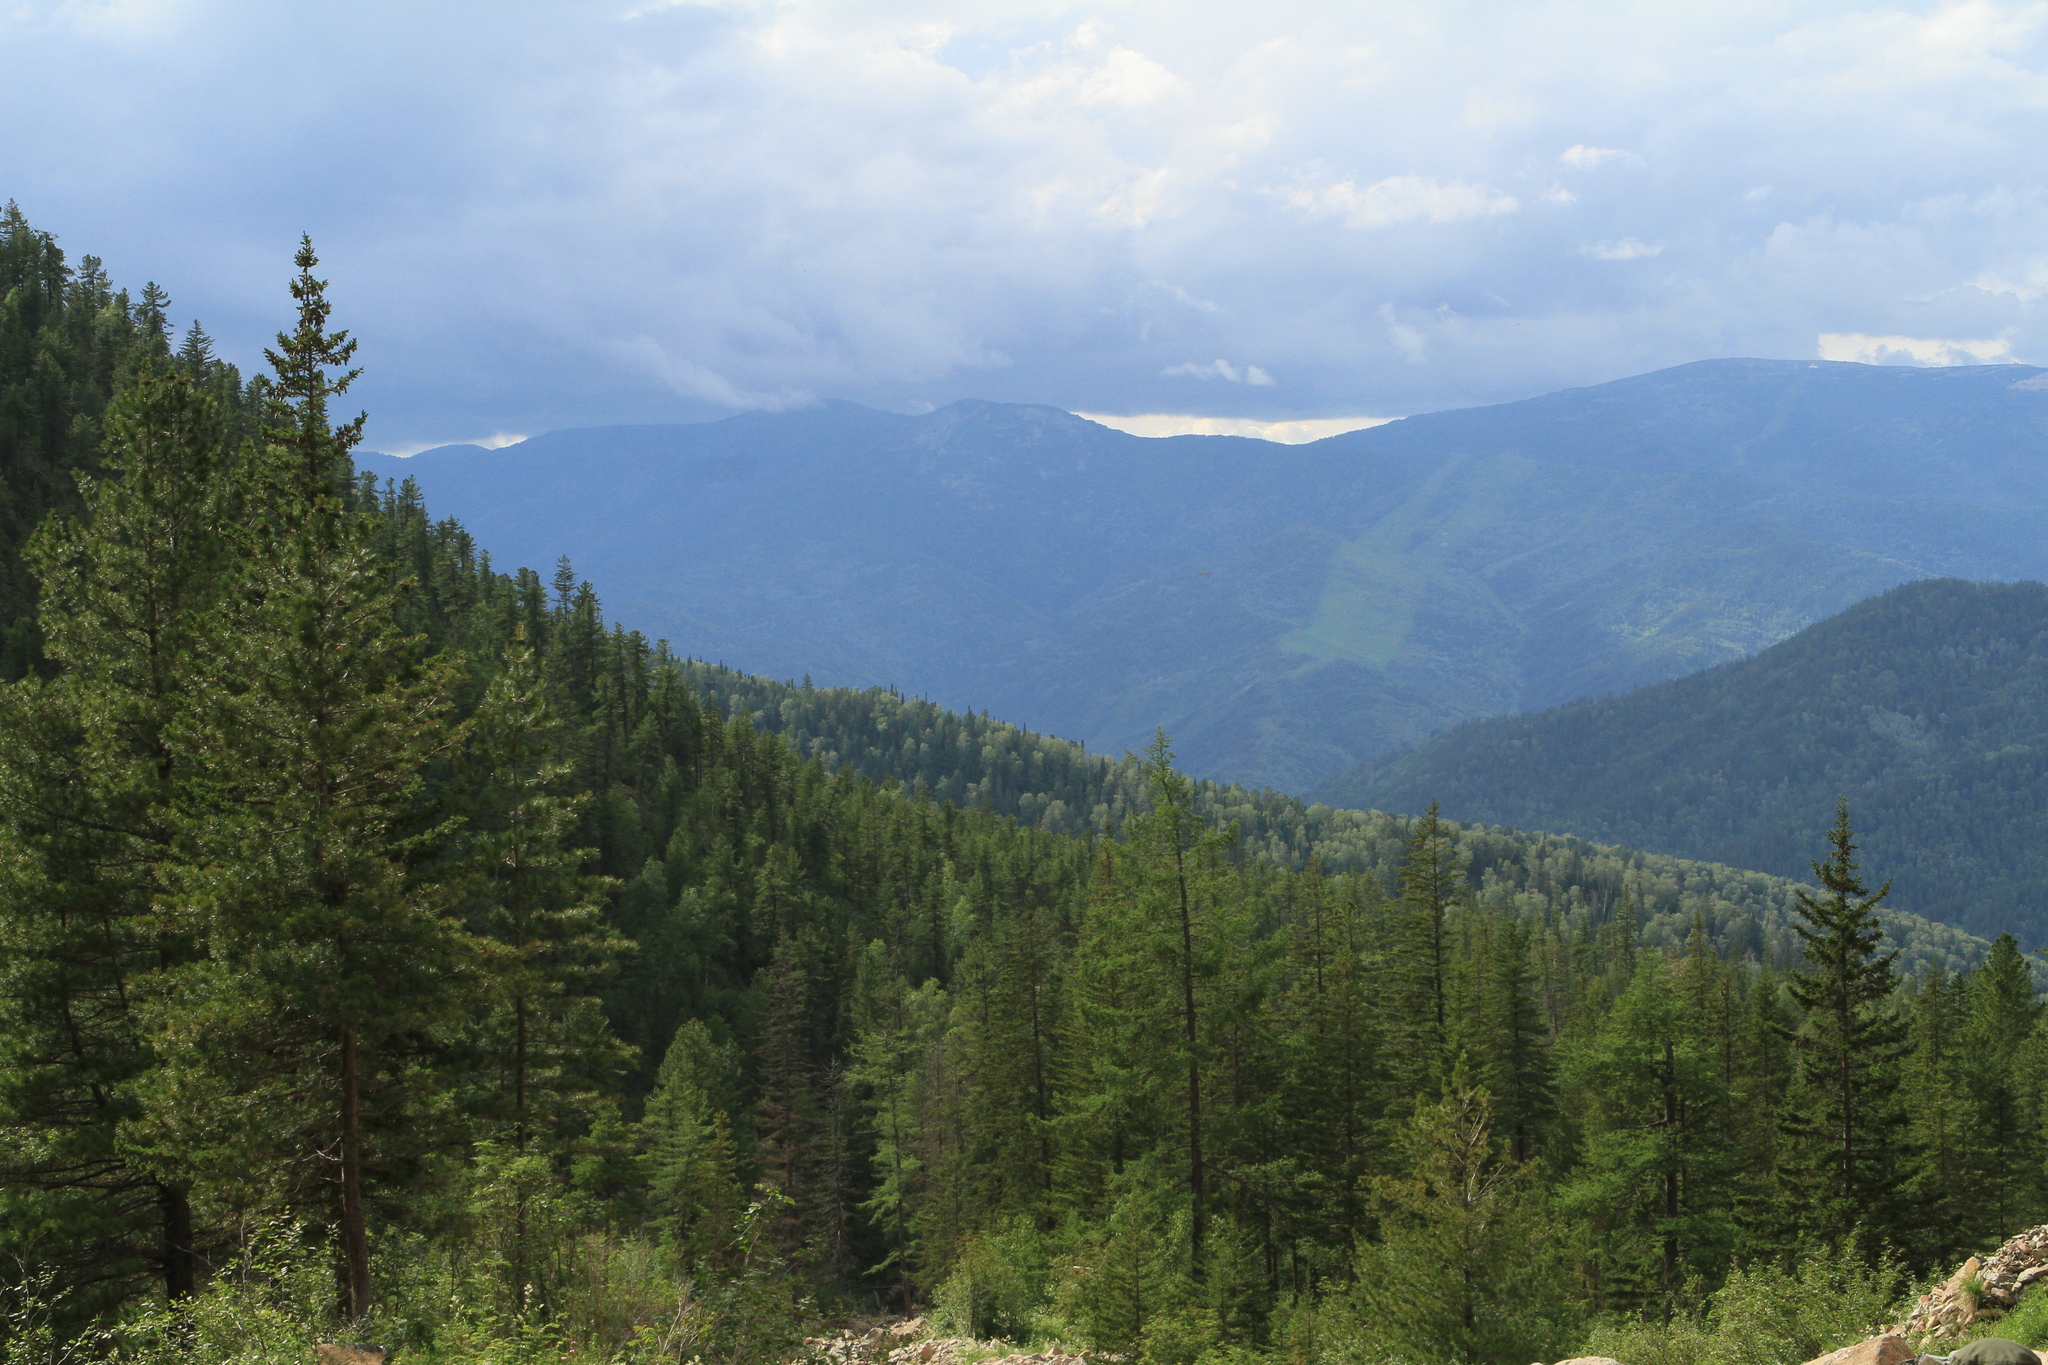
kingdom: Plantae
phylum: Tracheophyta
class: Pinopsida
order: Pinales
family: Pinaceae
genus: Pinus
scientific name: Pinus sibirica
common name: Siberian pine
